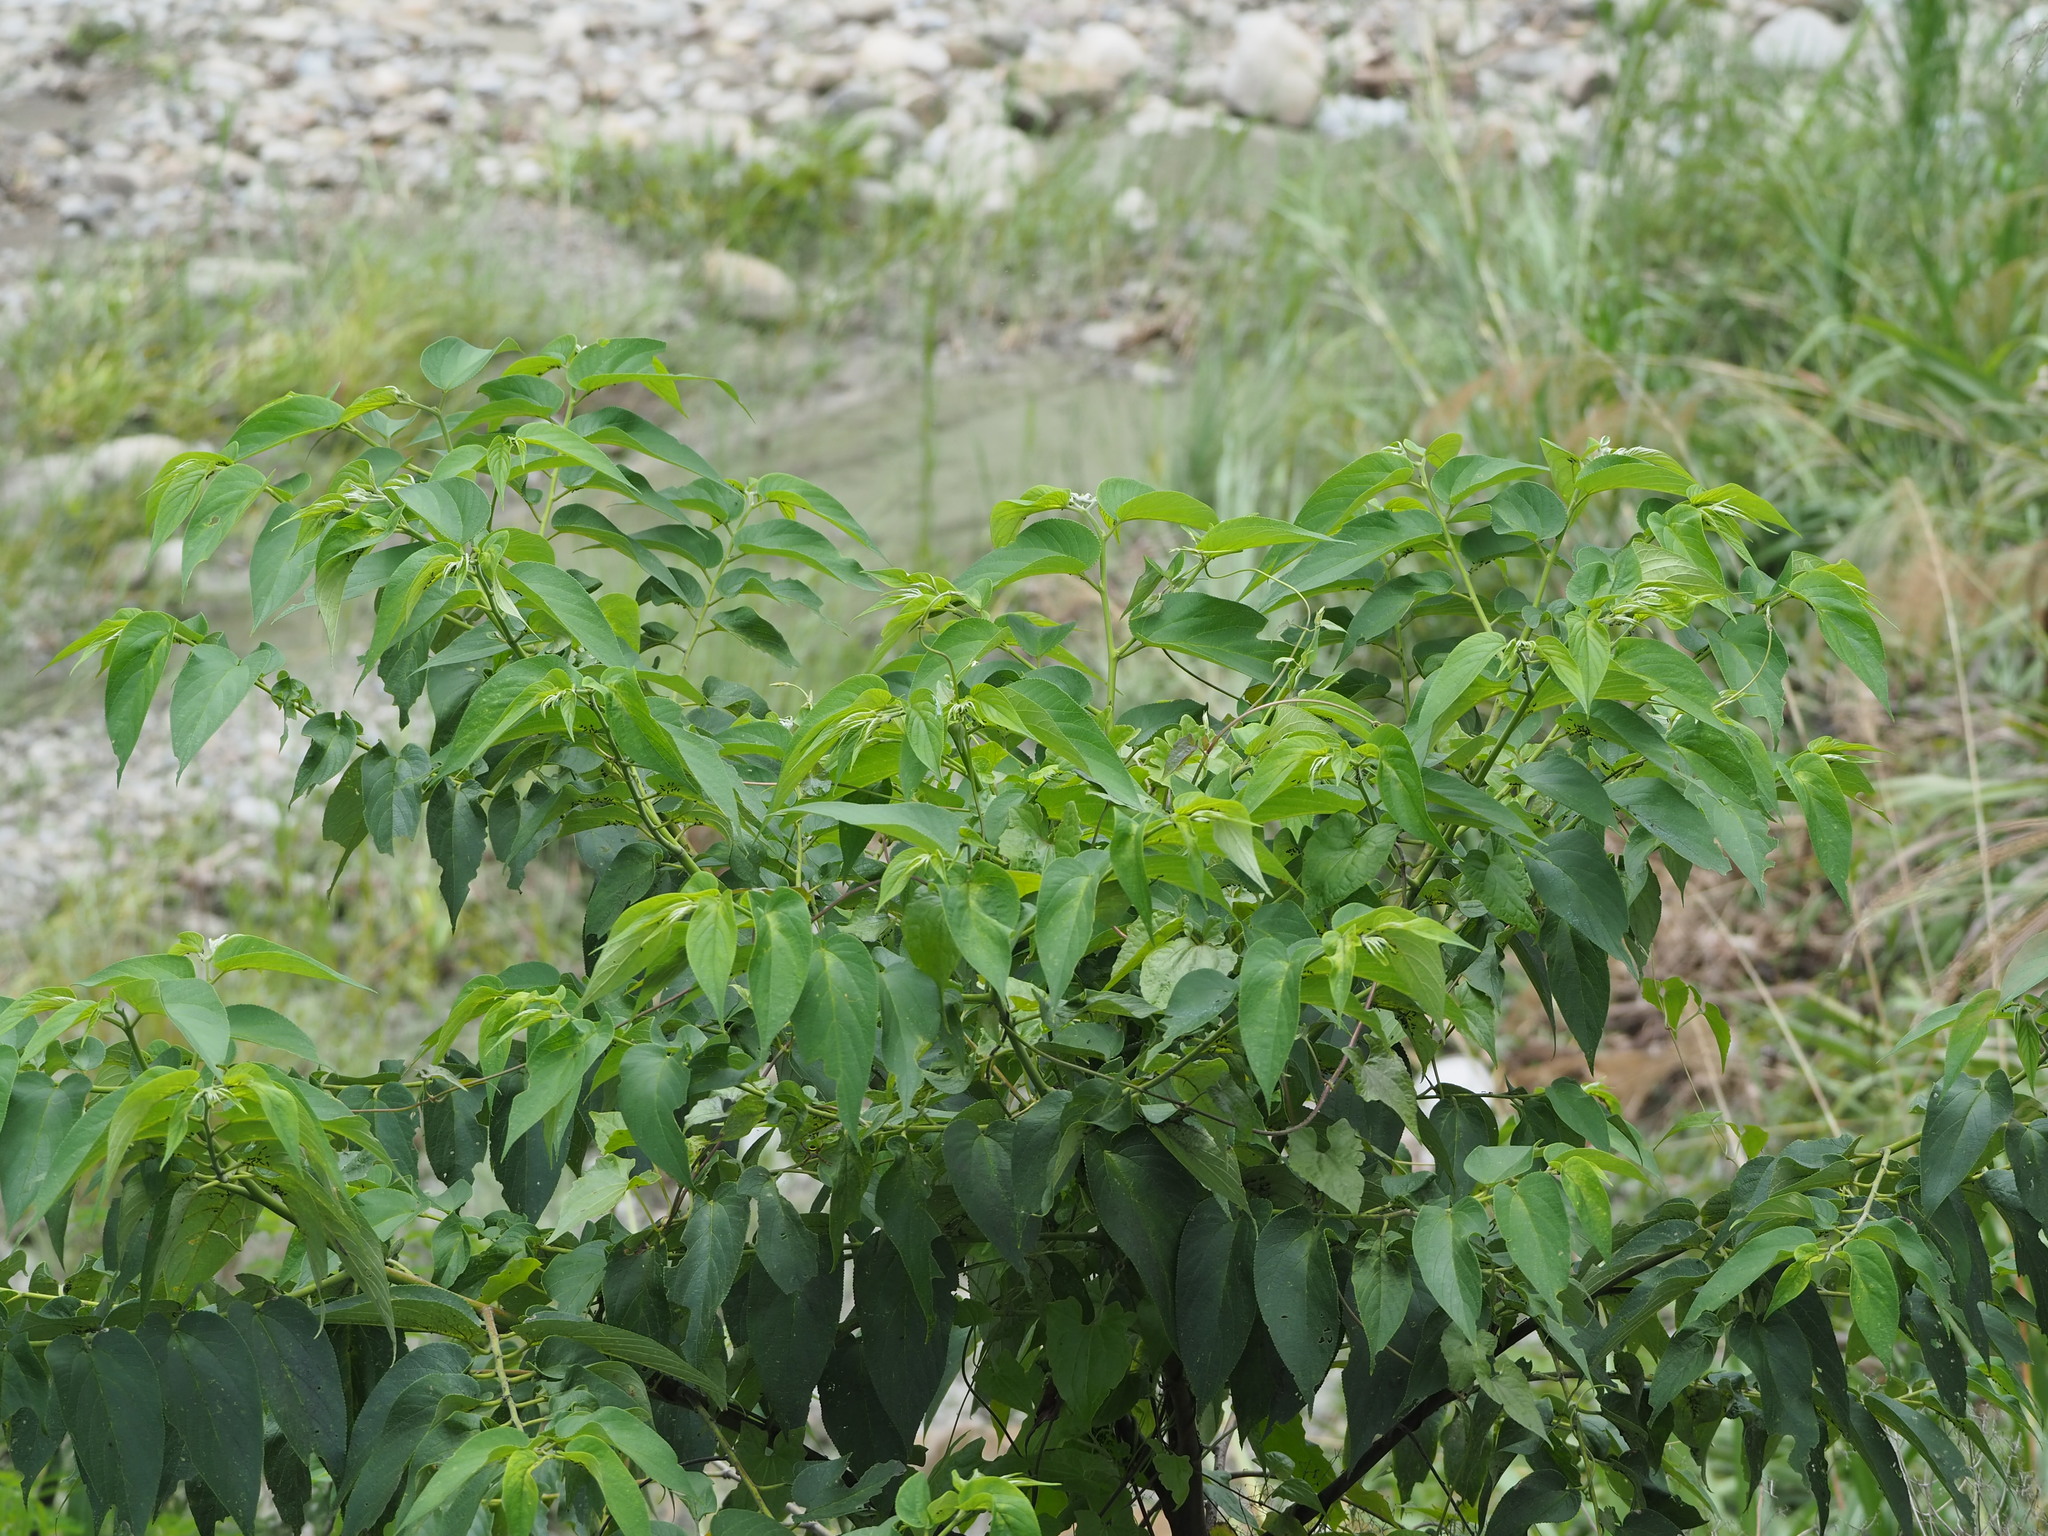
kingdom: Plantae
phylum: Tracheophyta
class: Magnoliopsida
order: Rosales
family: Cannabaceae
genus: Trema
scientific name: Trema orientale
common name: Indian charcoal tree
